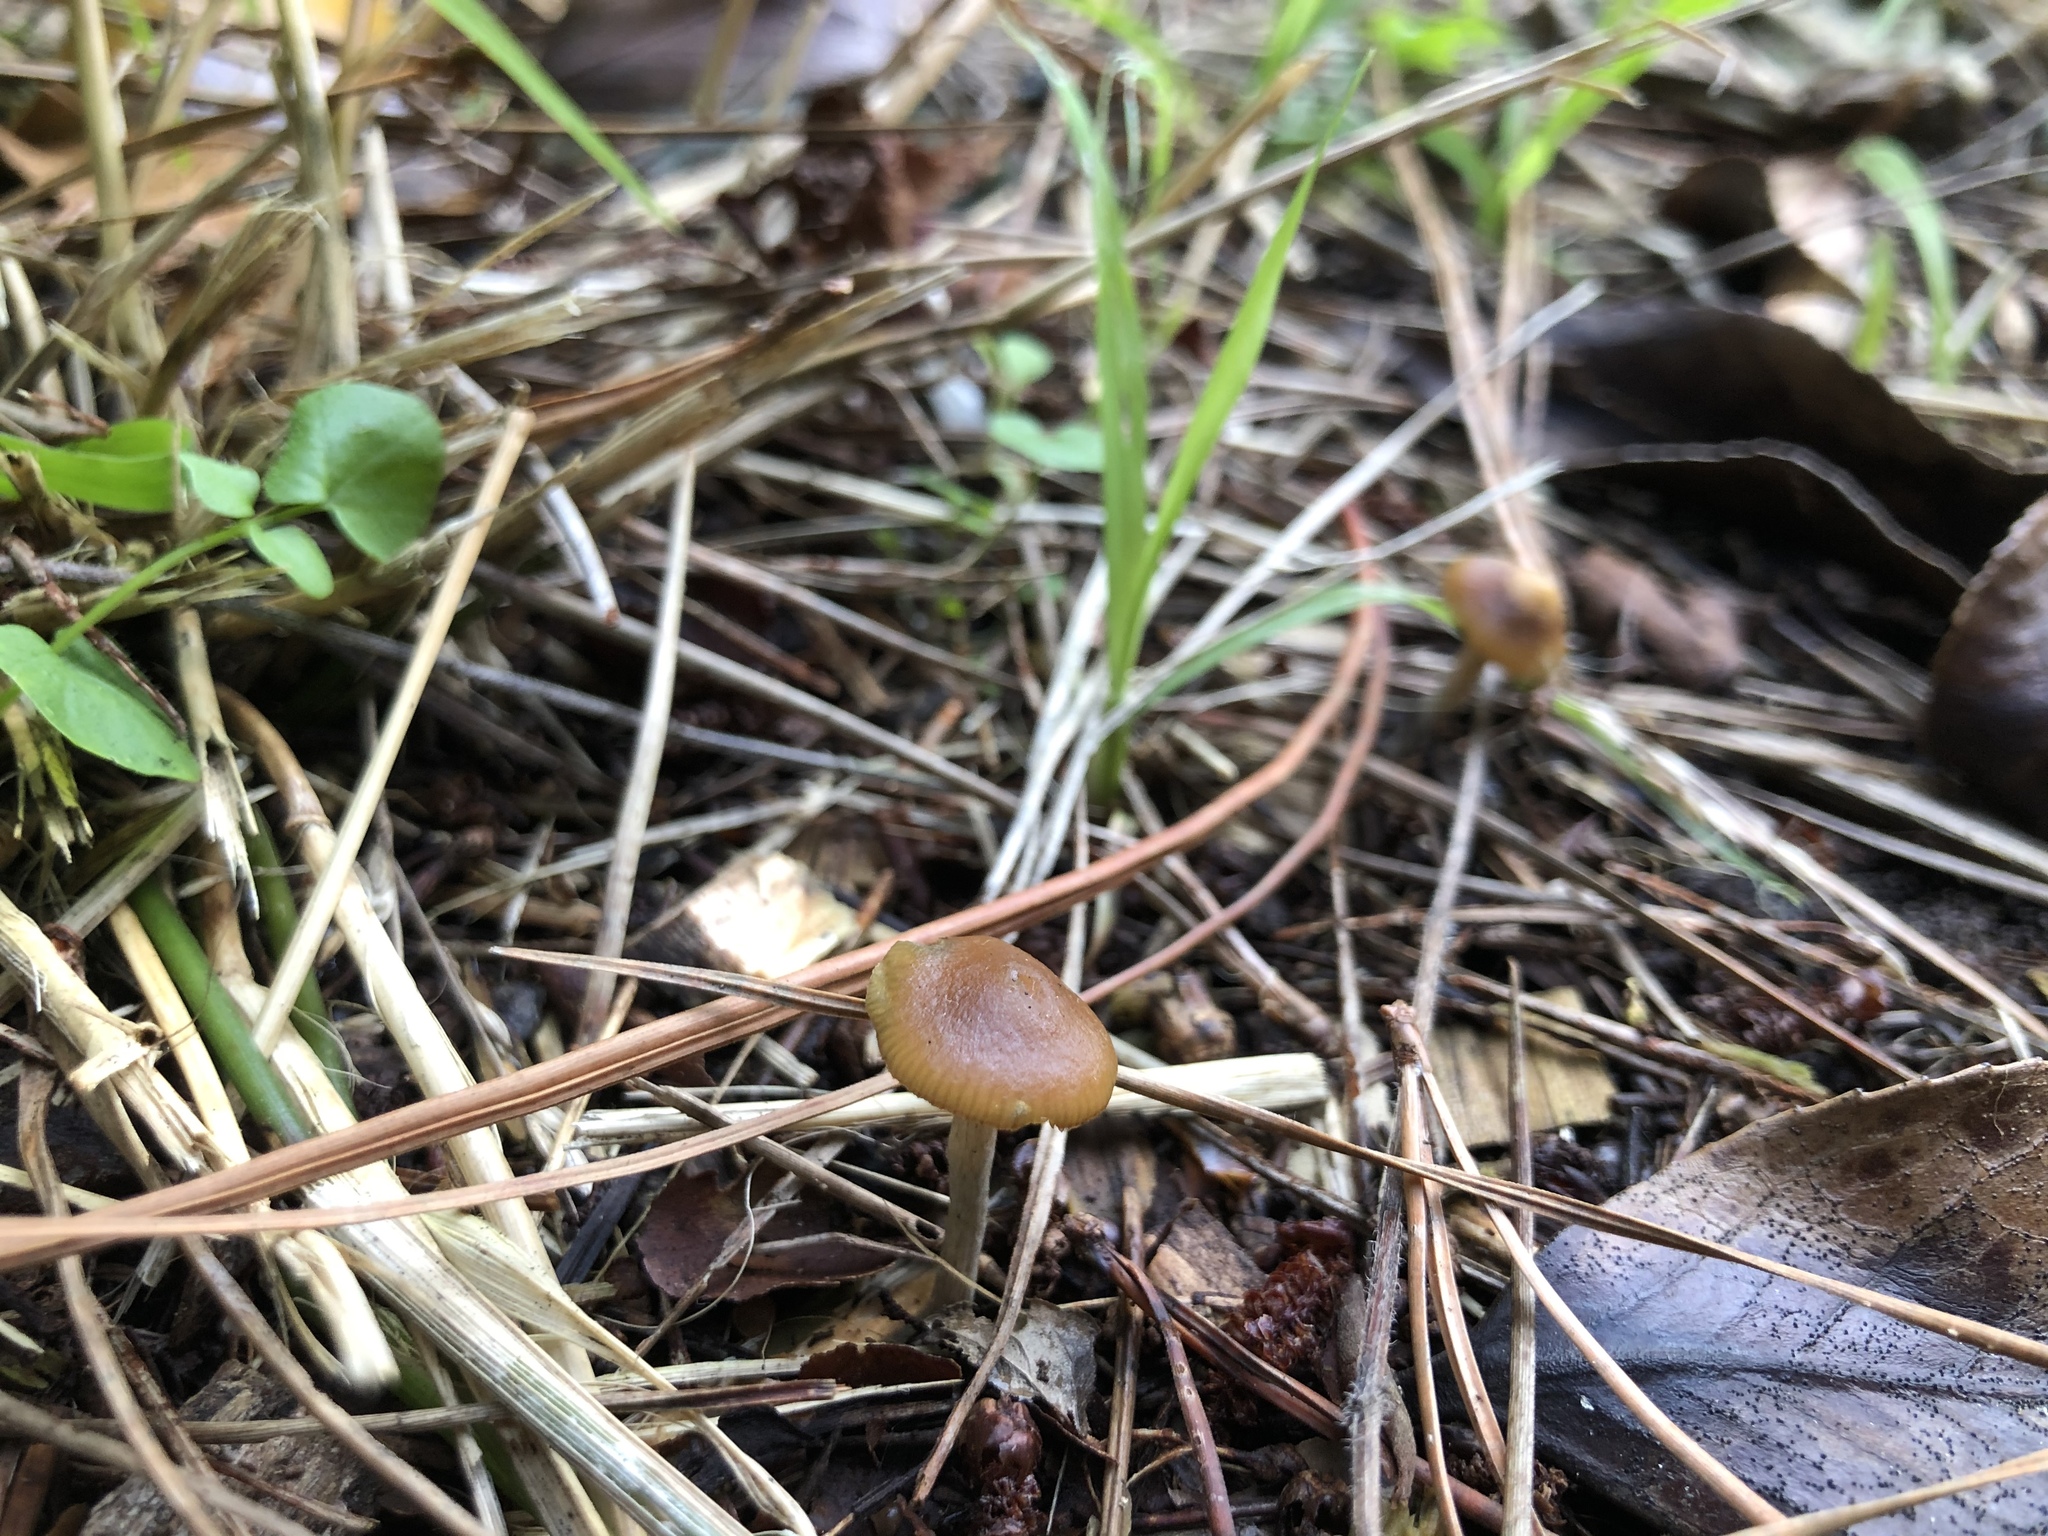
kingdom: Fungi
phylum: Basidiomycota
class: Agaricomycetes
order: Agaricales
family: Hymenogastraceae
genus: Psilocybe
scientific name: Psilocybe cyanescens
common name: Blueleg brownie
